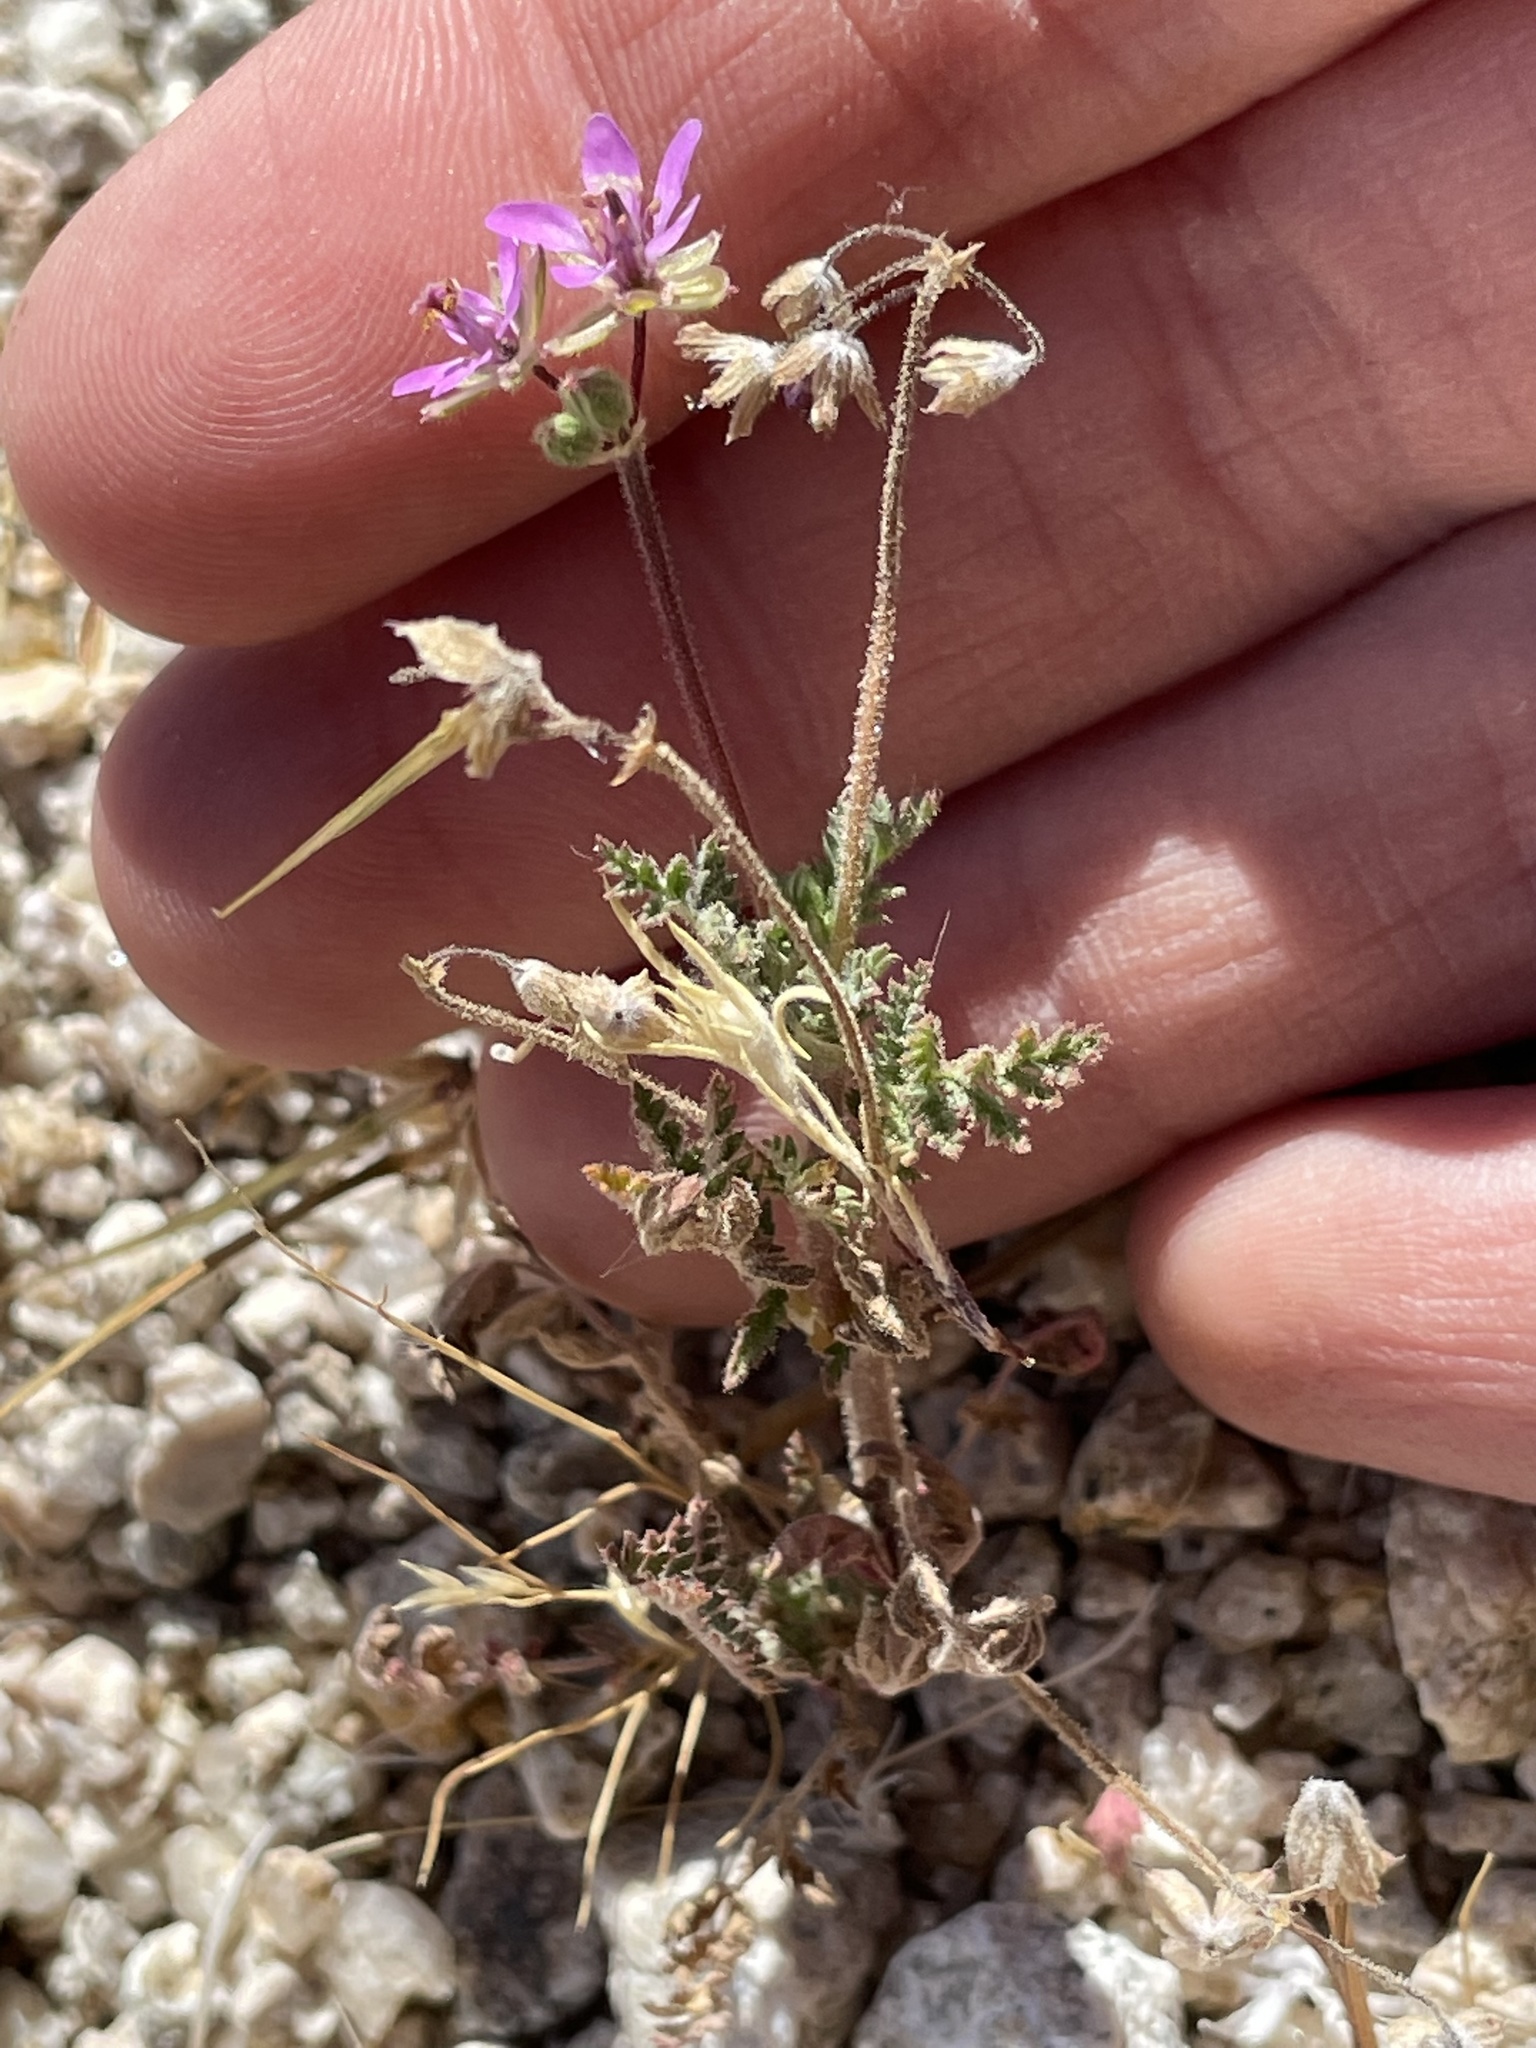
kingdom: Plantae
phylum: Tracheophyta
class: Magnoliopsida
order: Geraniales
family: Geraniaceae
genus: Erodium
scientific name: Erodium cicutarium
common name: Common stork's-bill
